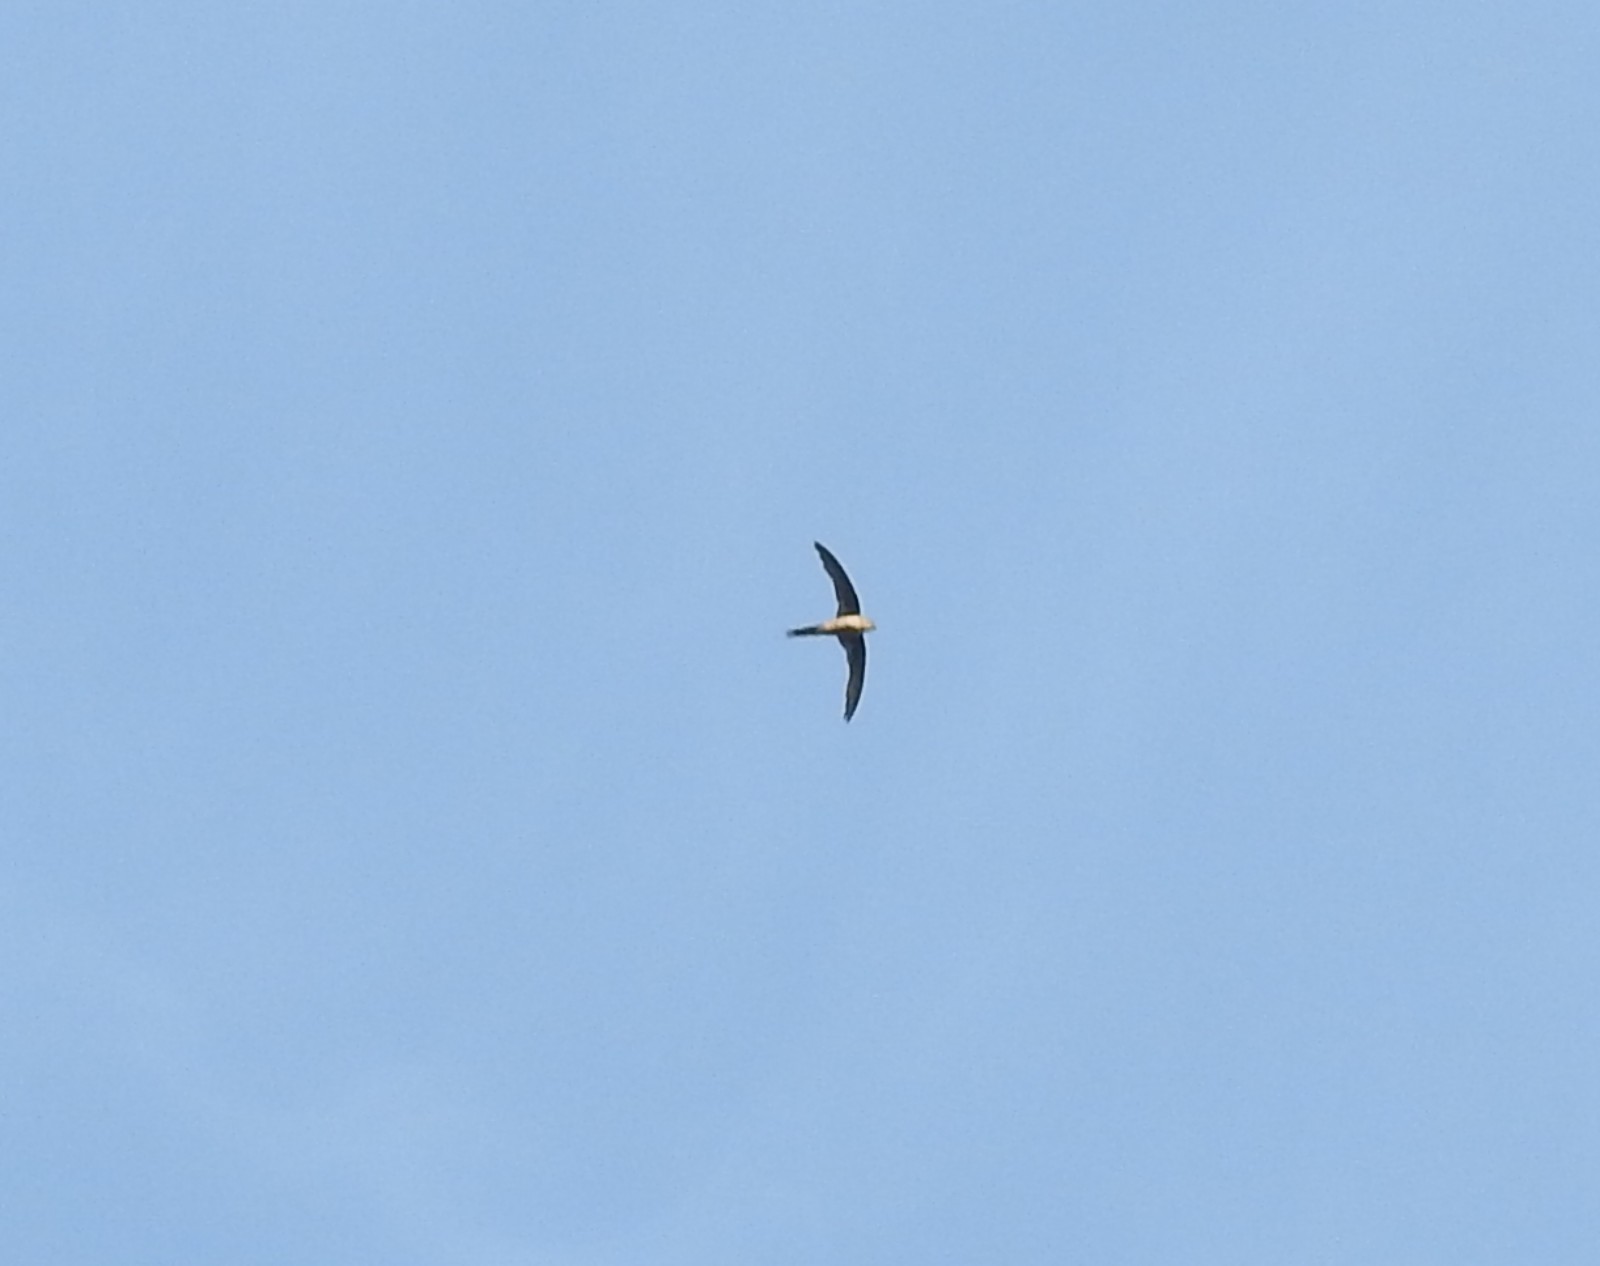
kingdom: Animalia
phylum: Chordata
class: Aves
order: Apodiformes
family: Apodidae
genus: Cypsiurus
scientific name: Cypsiurus balasiensis
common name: Asian palm swift
